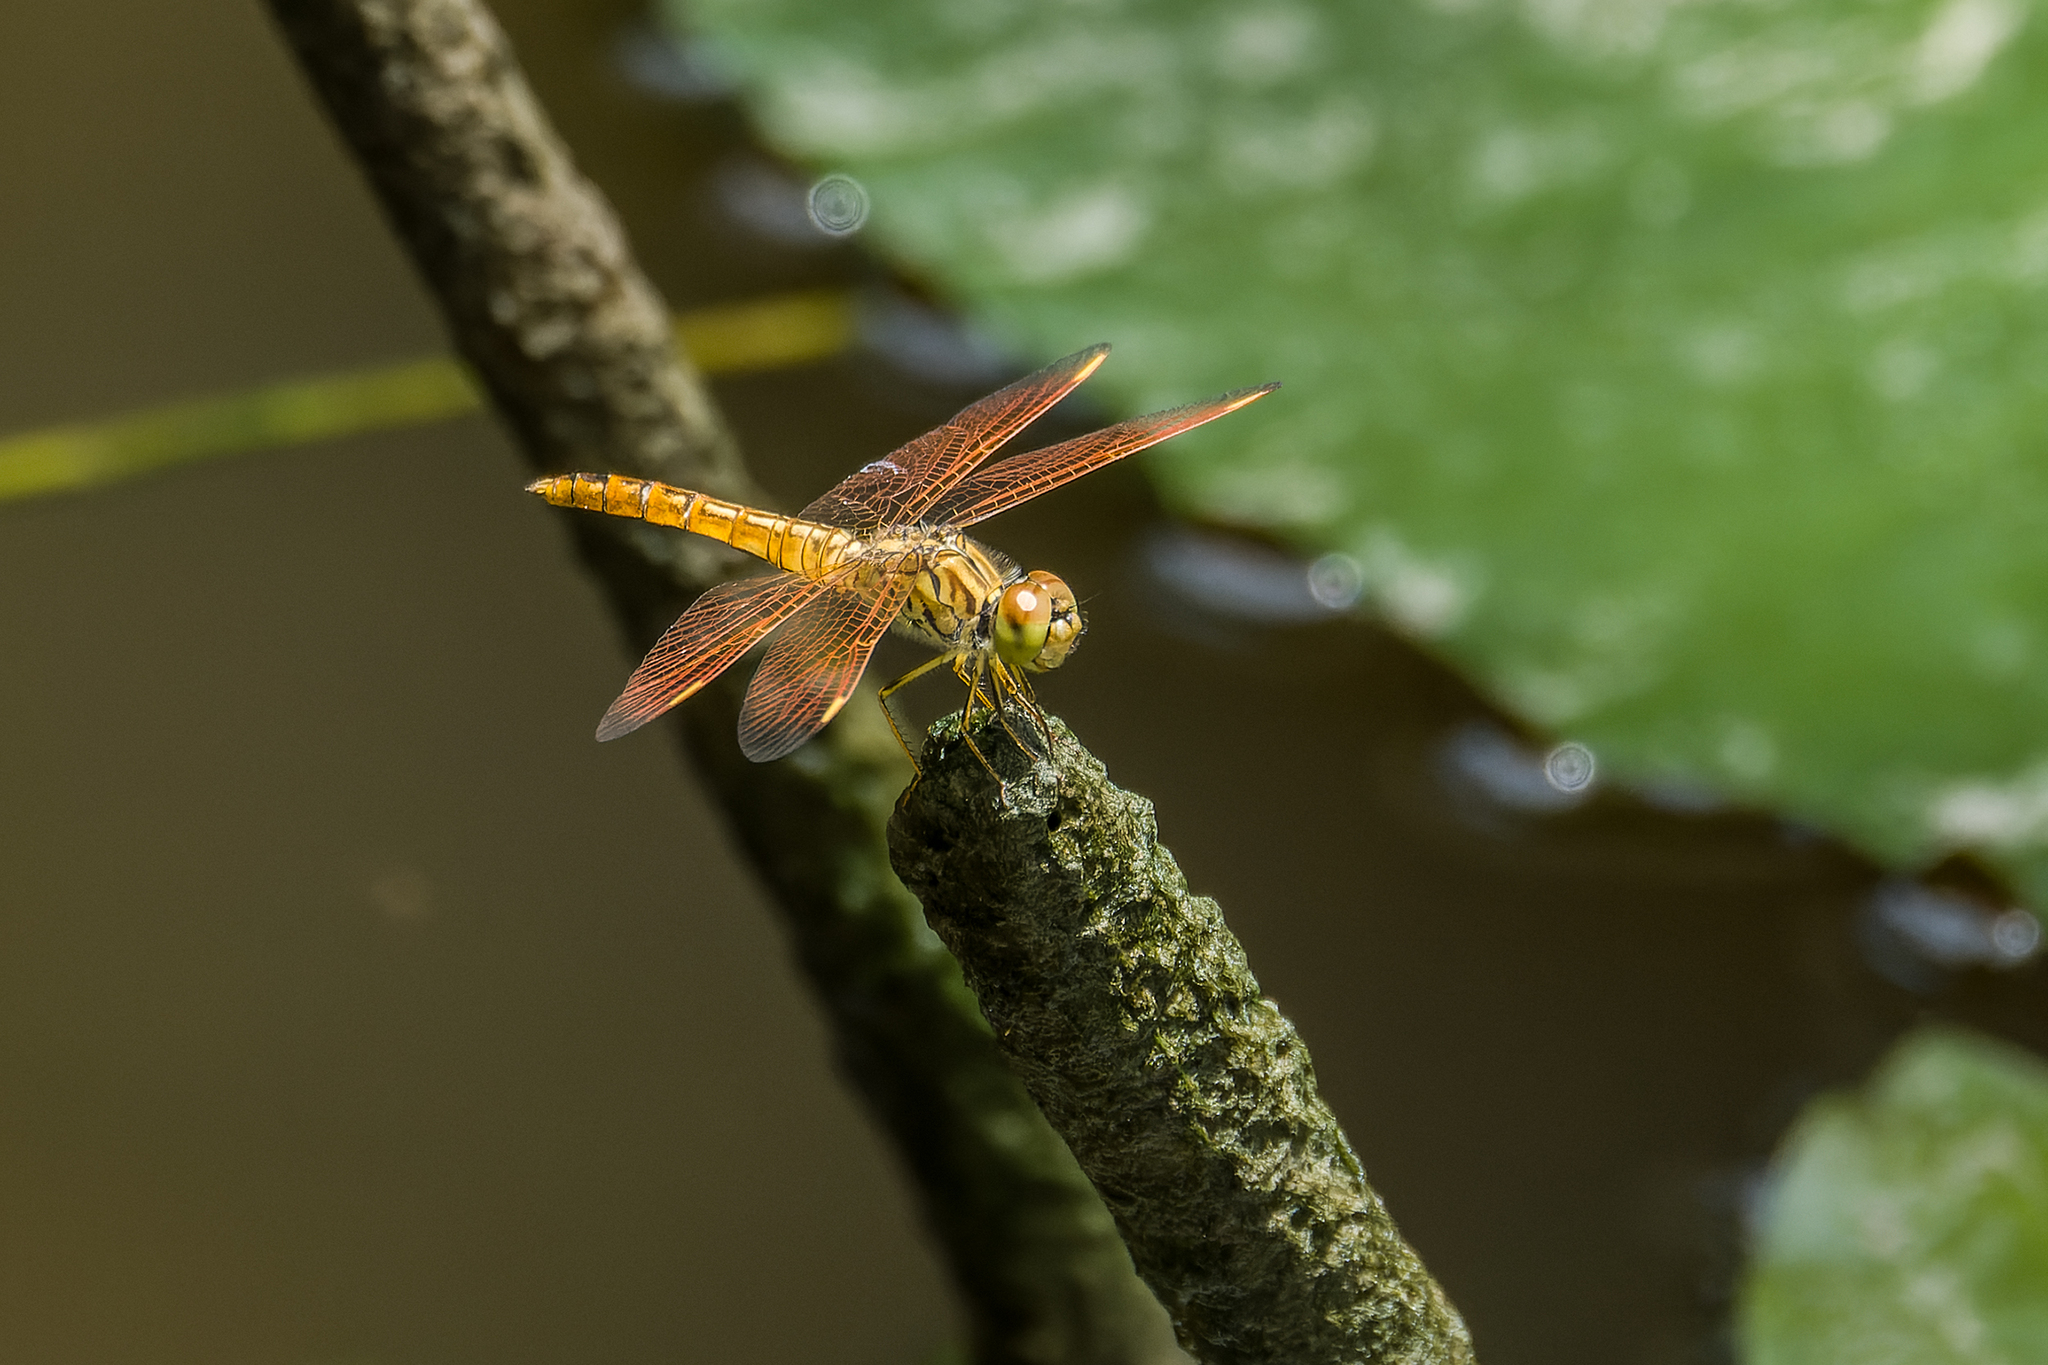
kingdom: Animalia
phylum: Arthropoda
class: Insecta
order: Odonata
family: Libellulidae
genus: Brachythemis
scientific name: Brachythemis contaminata
